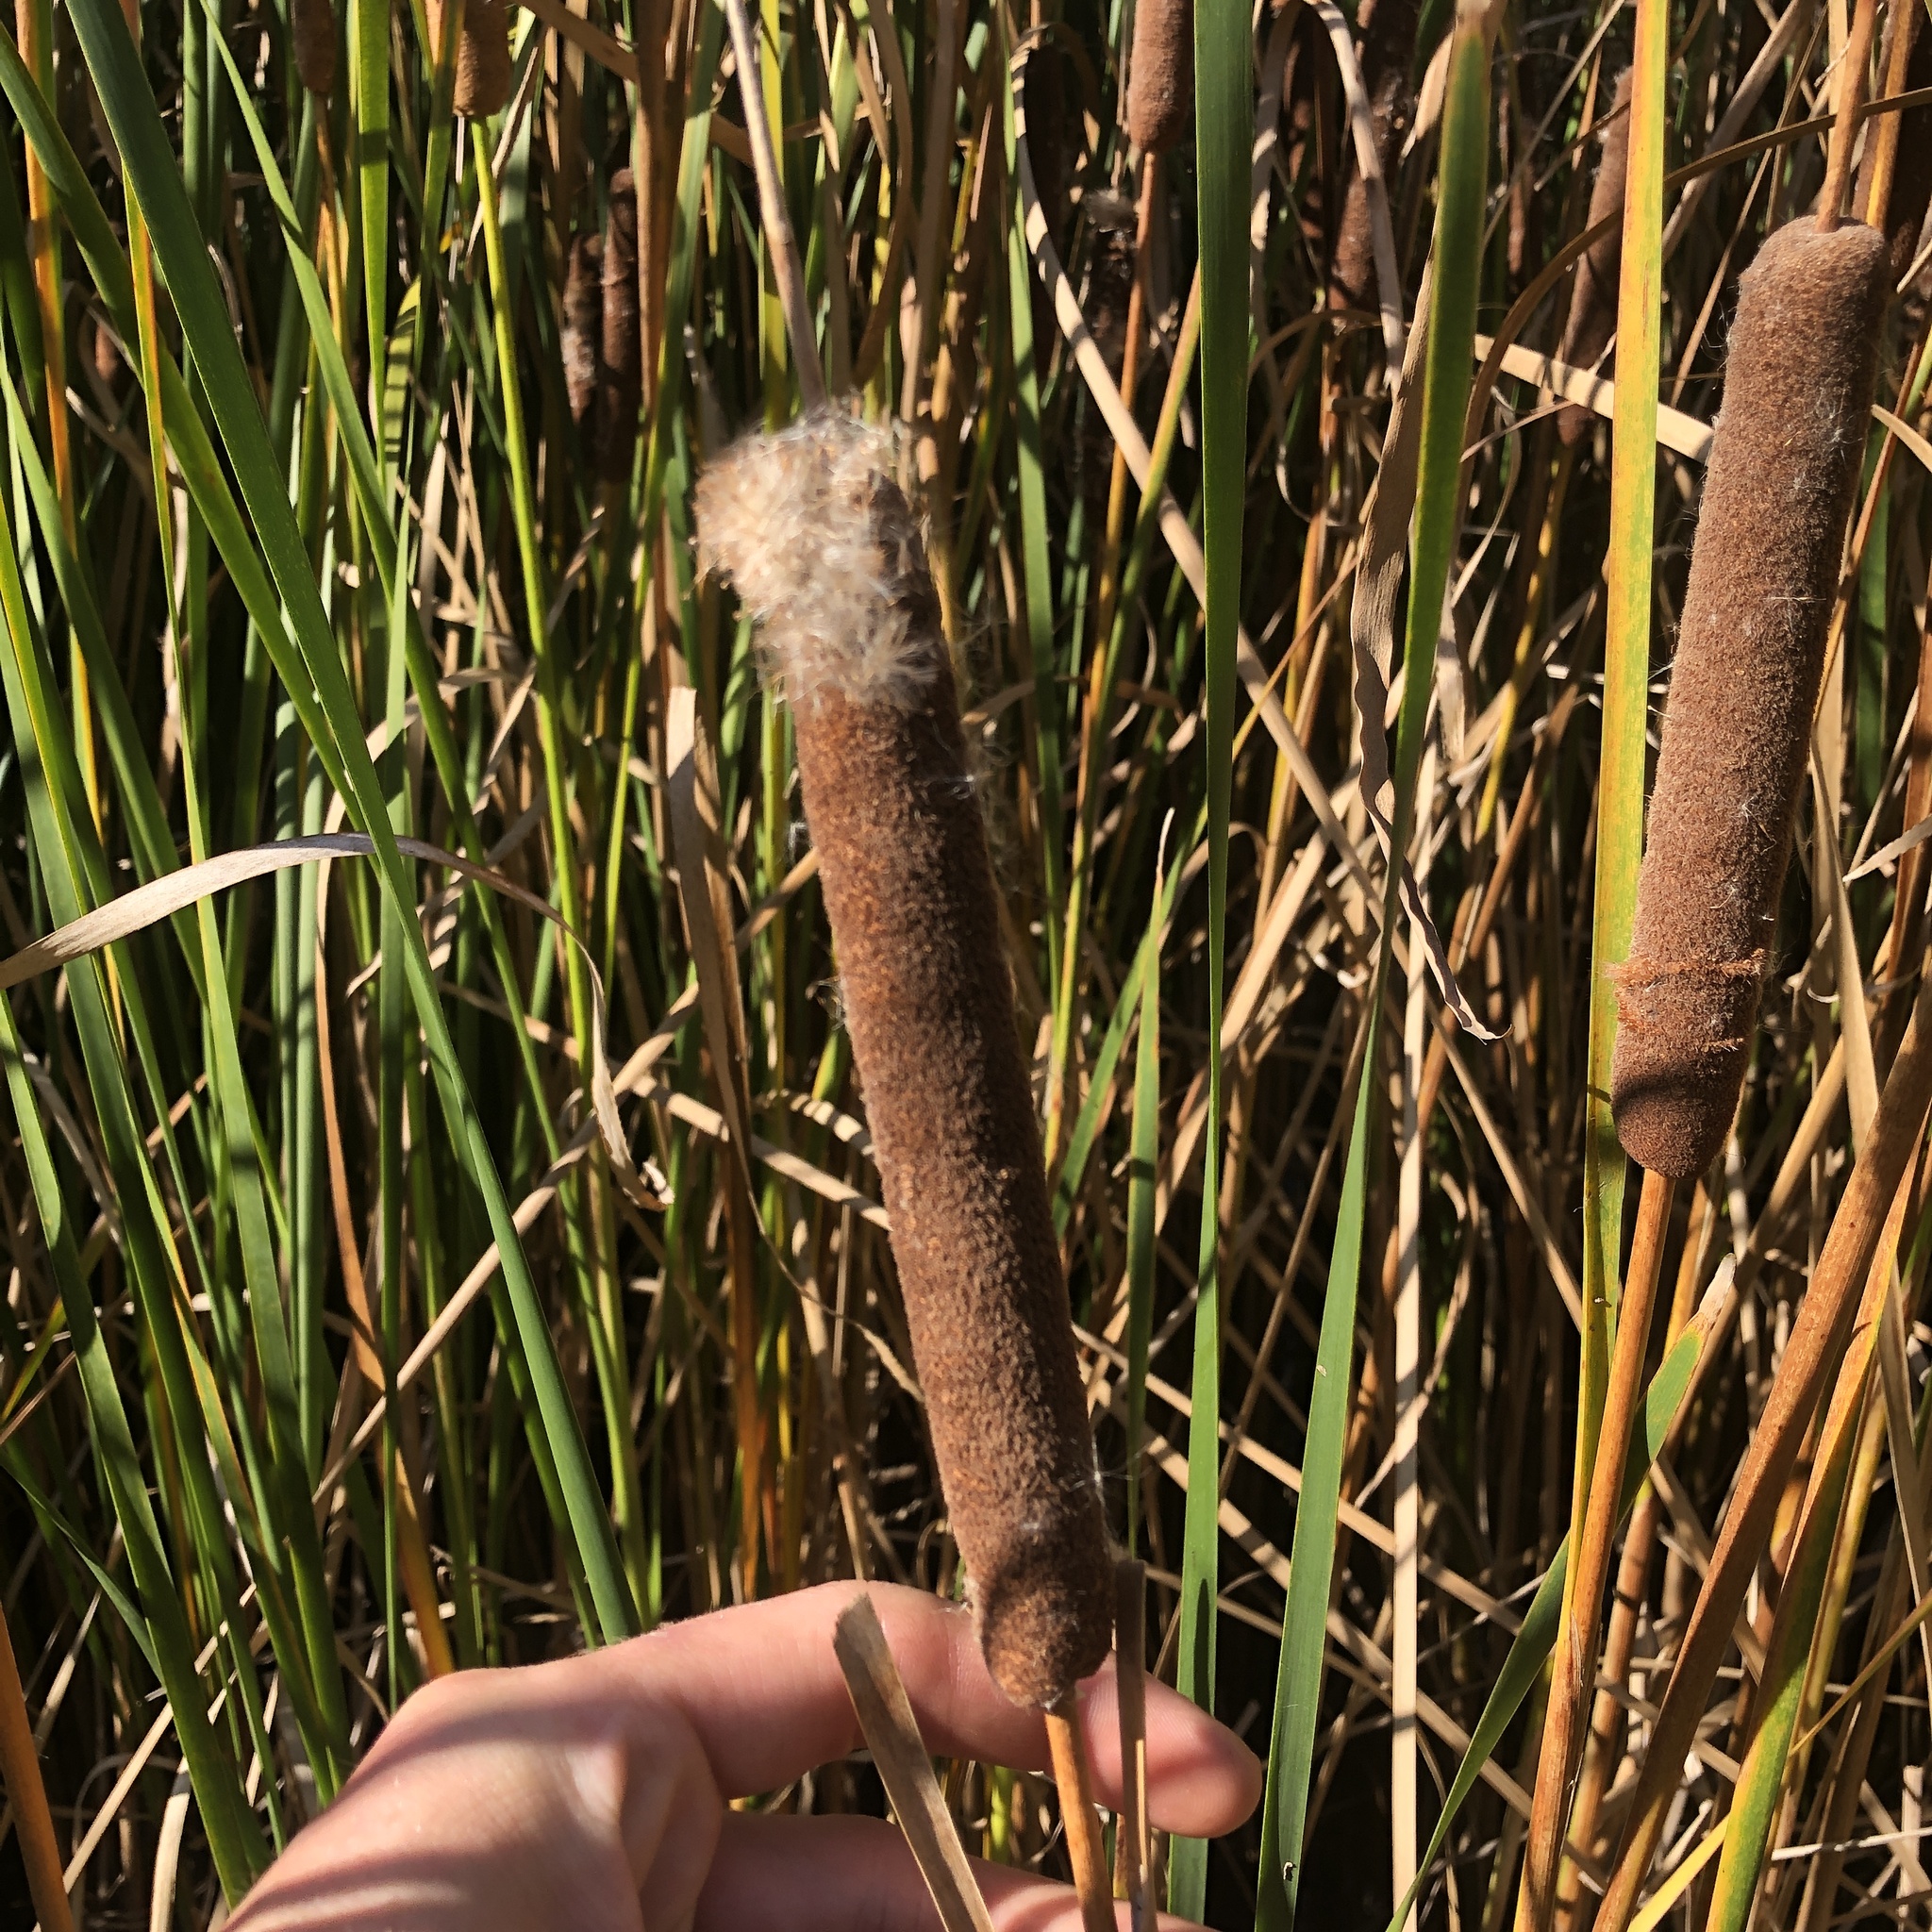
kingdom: Plantae
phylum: Tracheophyta
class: Liliopsida
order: Poales
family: Typhaceae
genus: Typha
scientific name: Typha angustifolia
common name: Lesser bulrush
